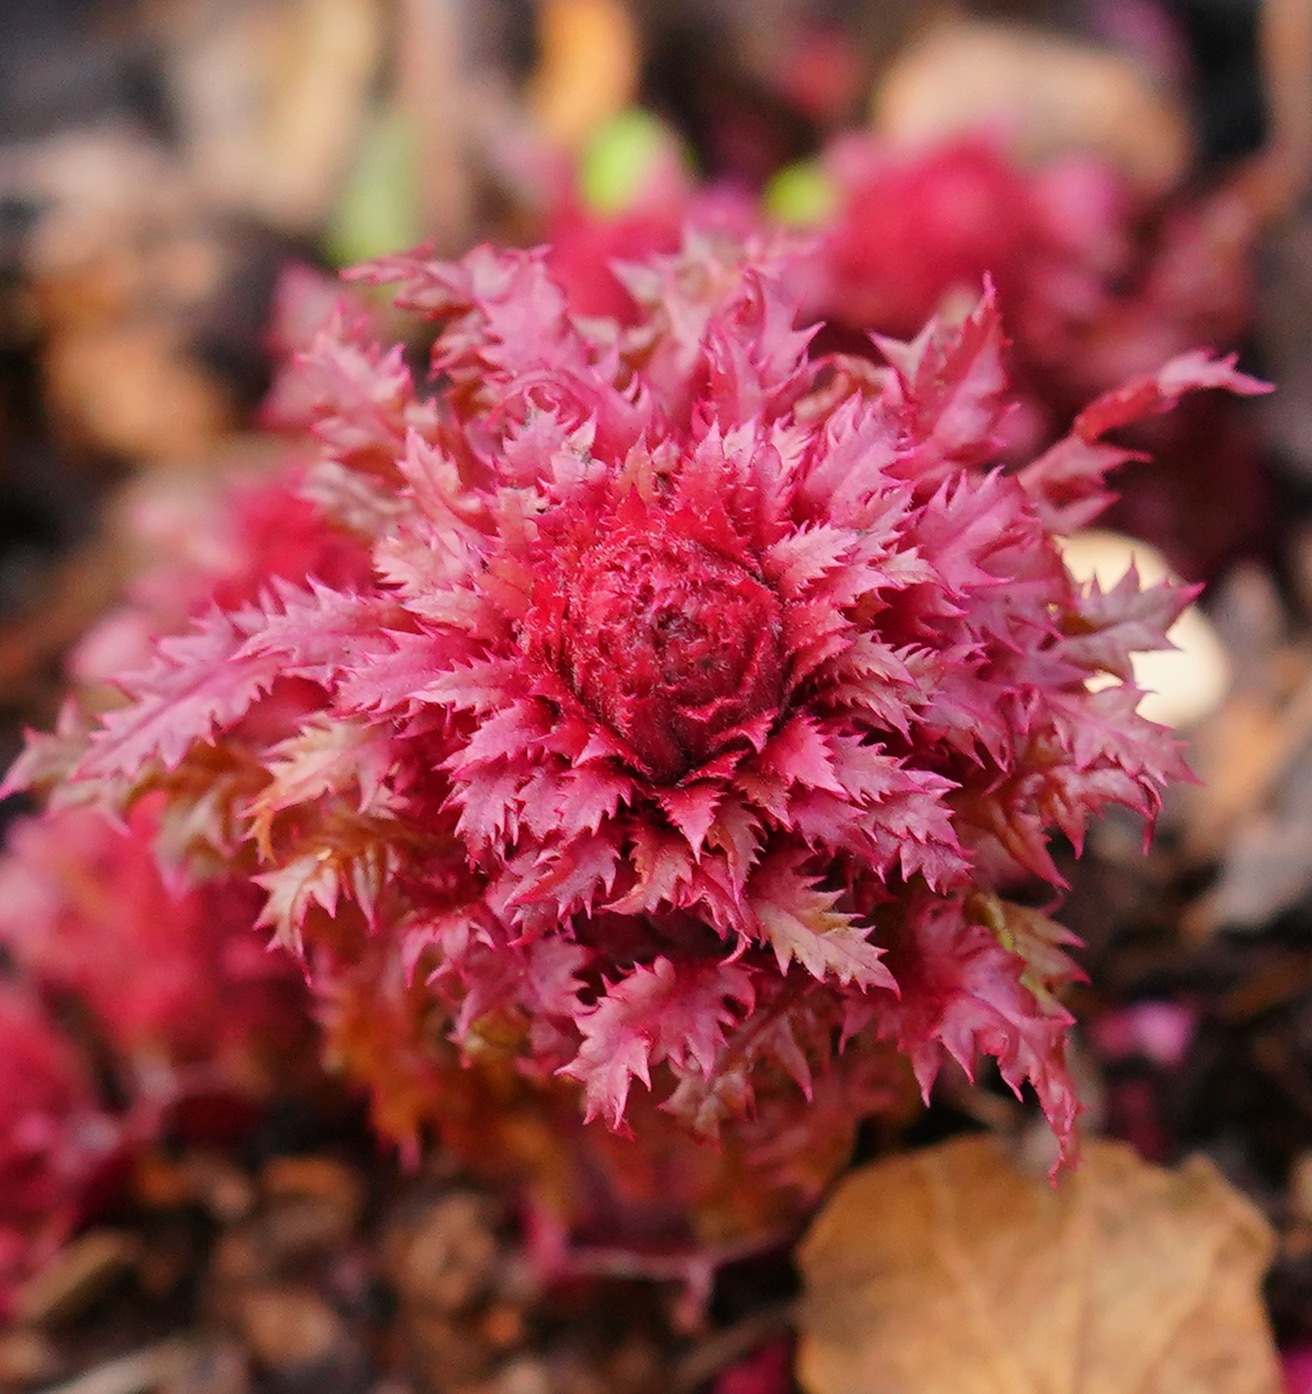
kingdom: Plantae
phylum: Tracheophyta
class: Magnoliopsida
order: Lamiales
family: Orobanchaceae
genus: Pedicularis
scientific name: Pedicularis densiflora
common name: Indian warrior
